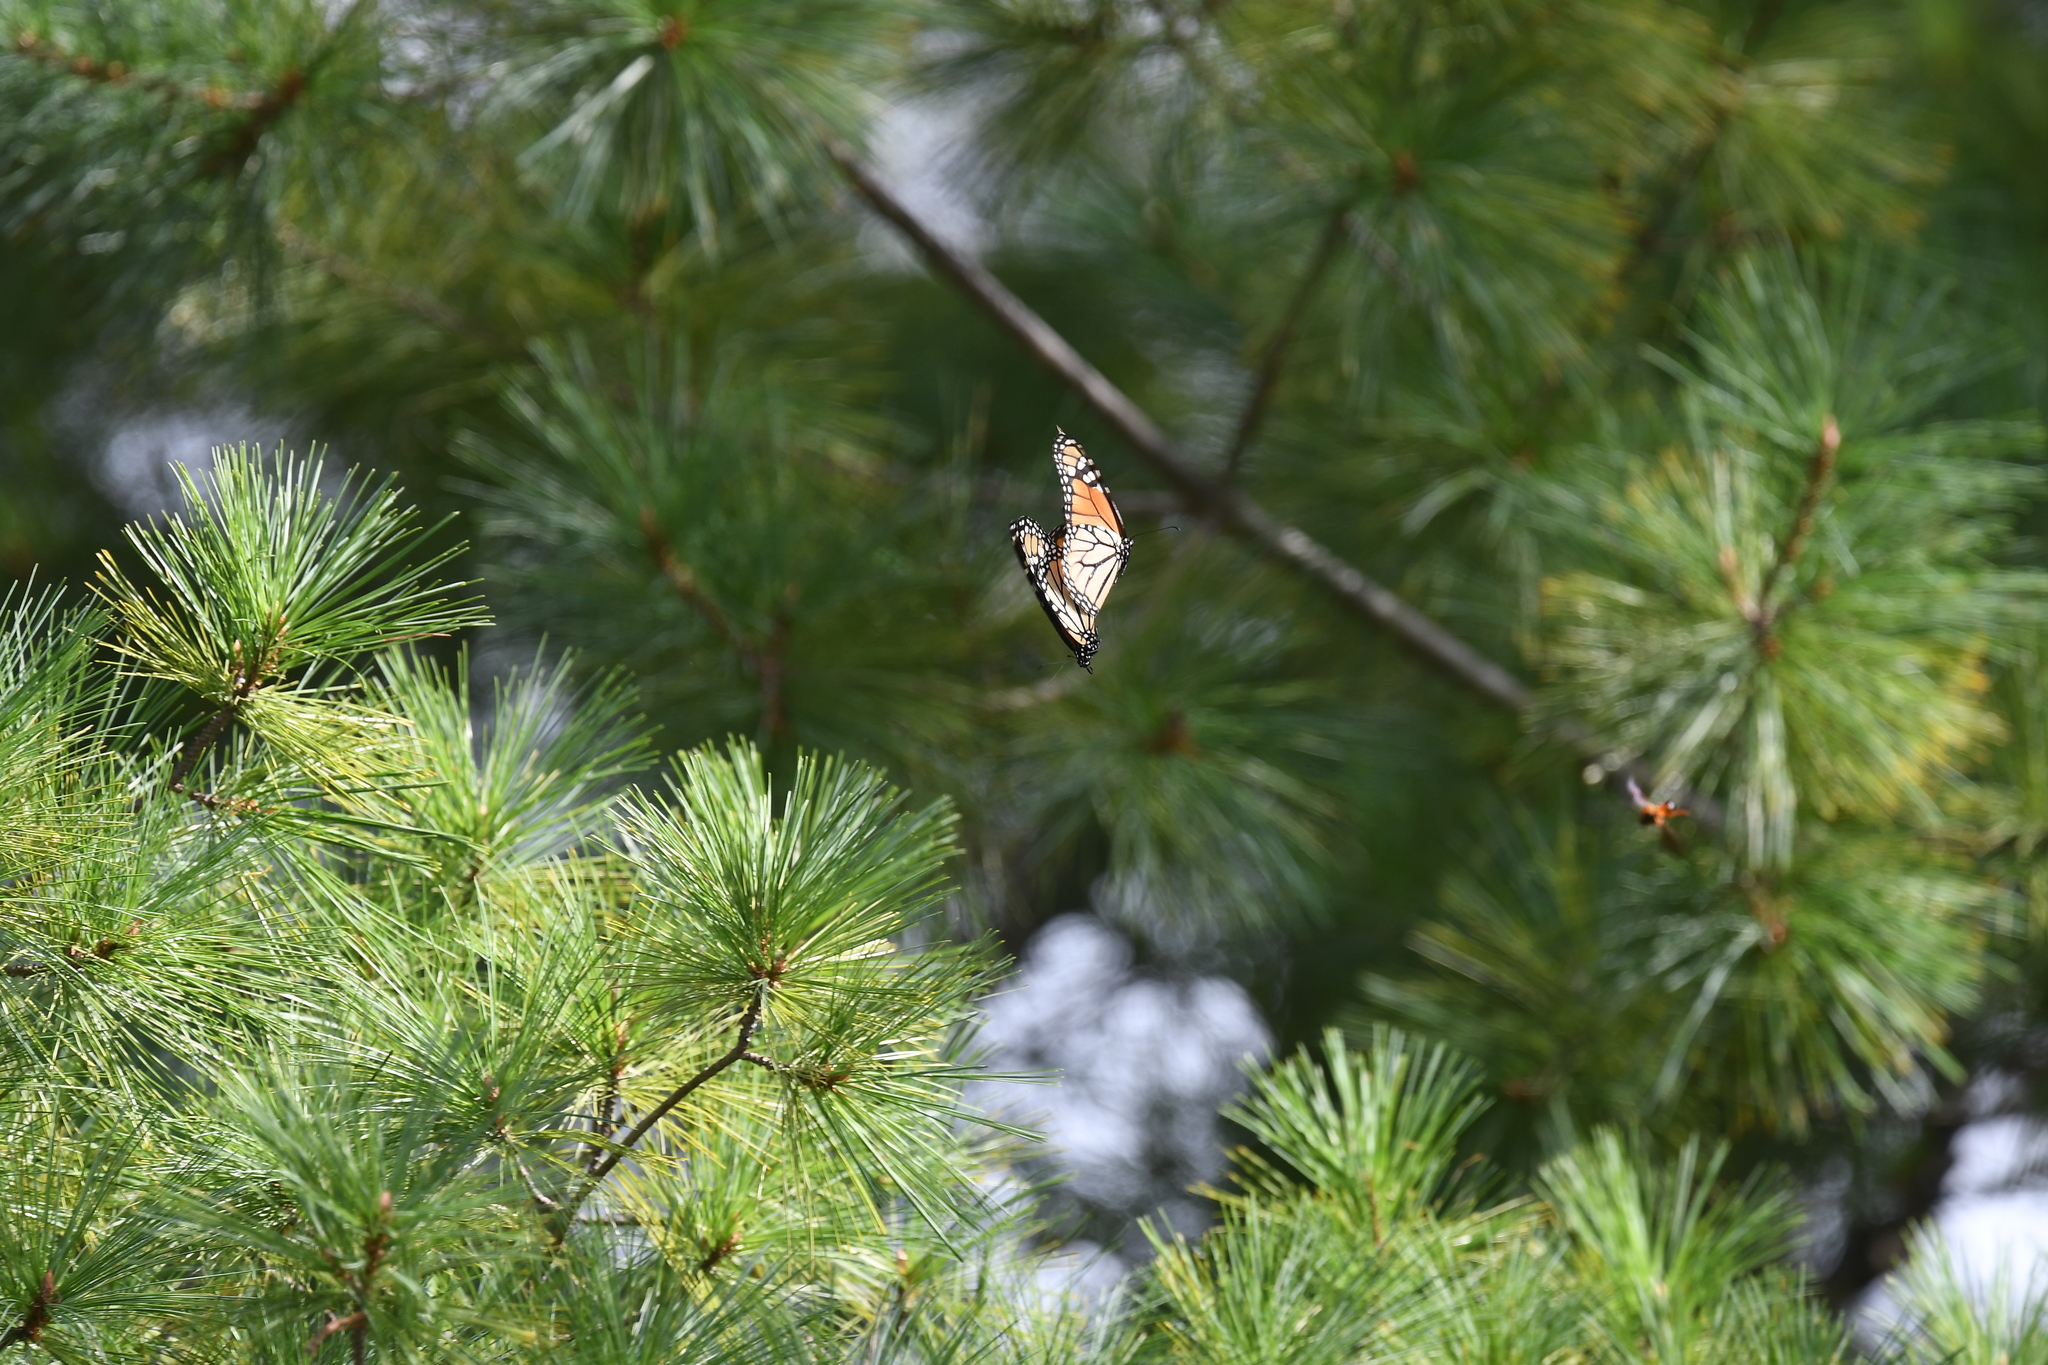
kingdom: Animalia
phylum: Arthropoda
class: Insecta
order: Lepidoptera
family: Nymphalidae
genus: Danaus
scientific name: Danaus plexippus
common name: Monarch
